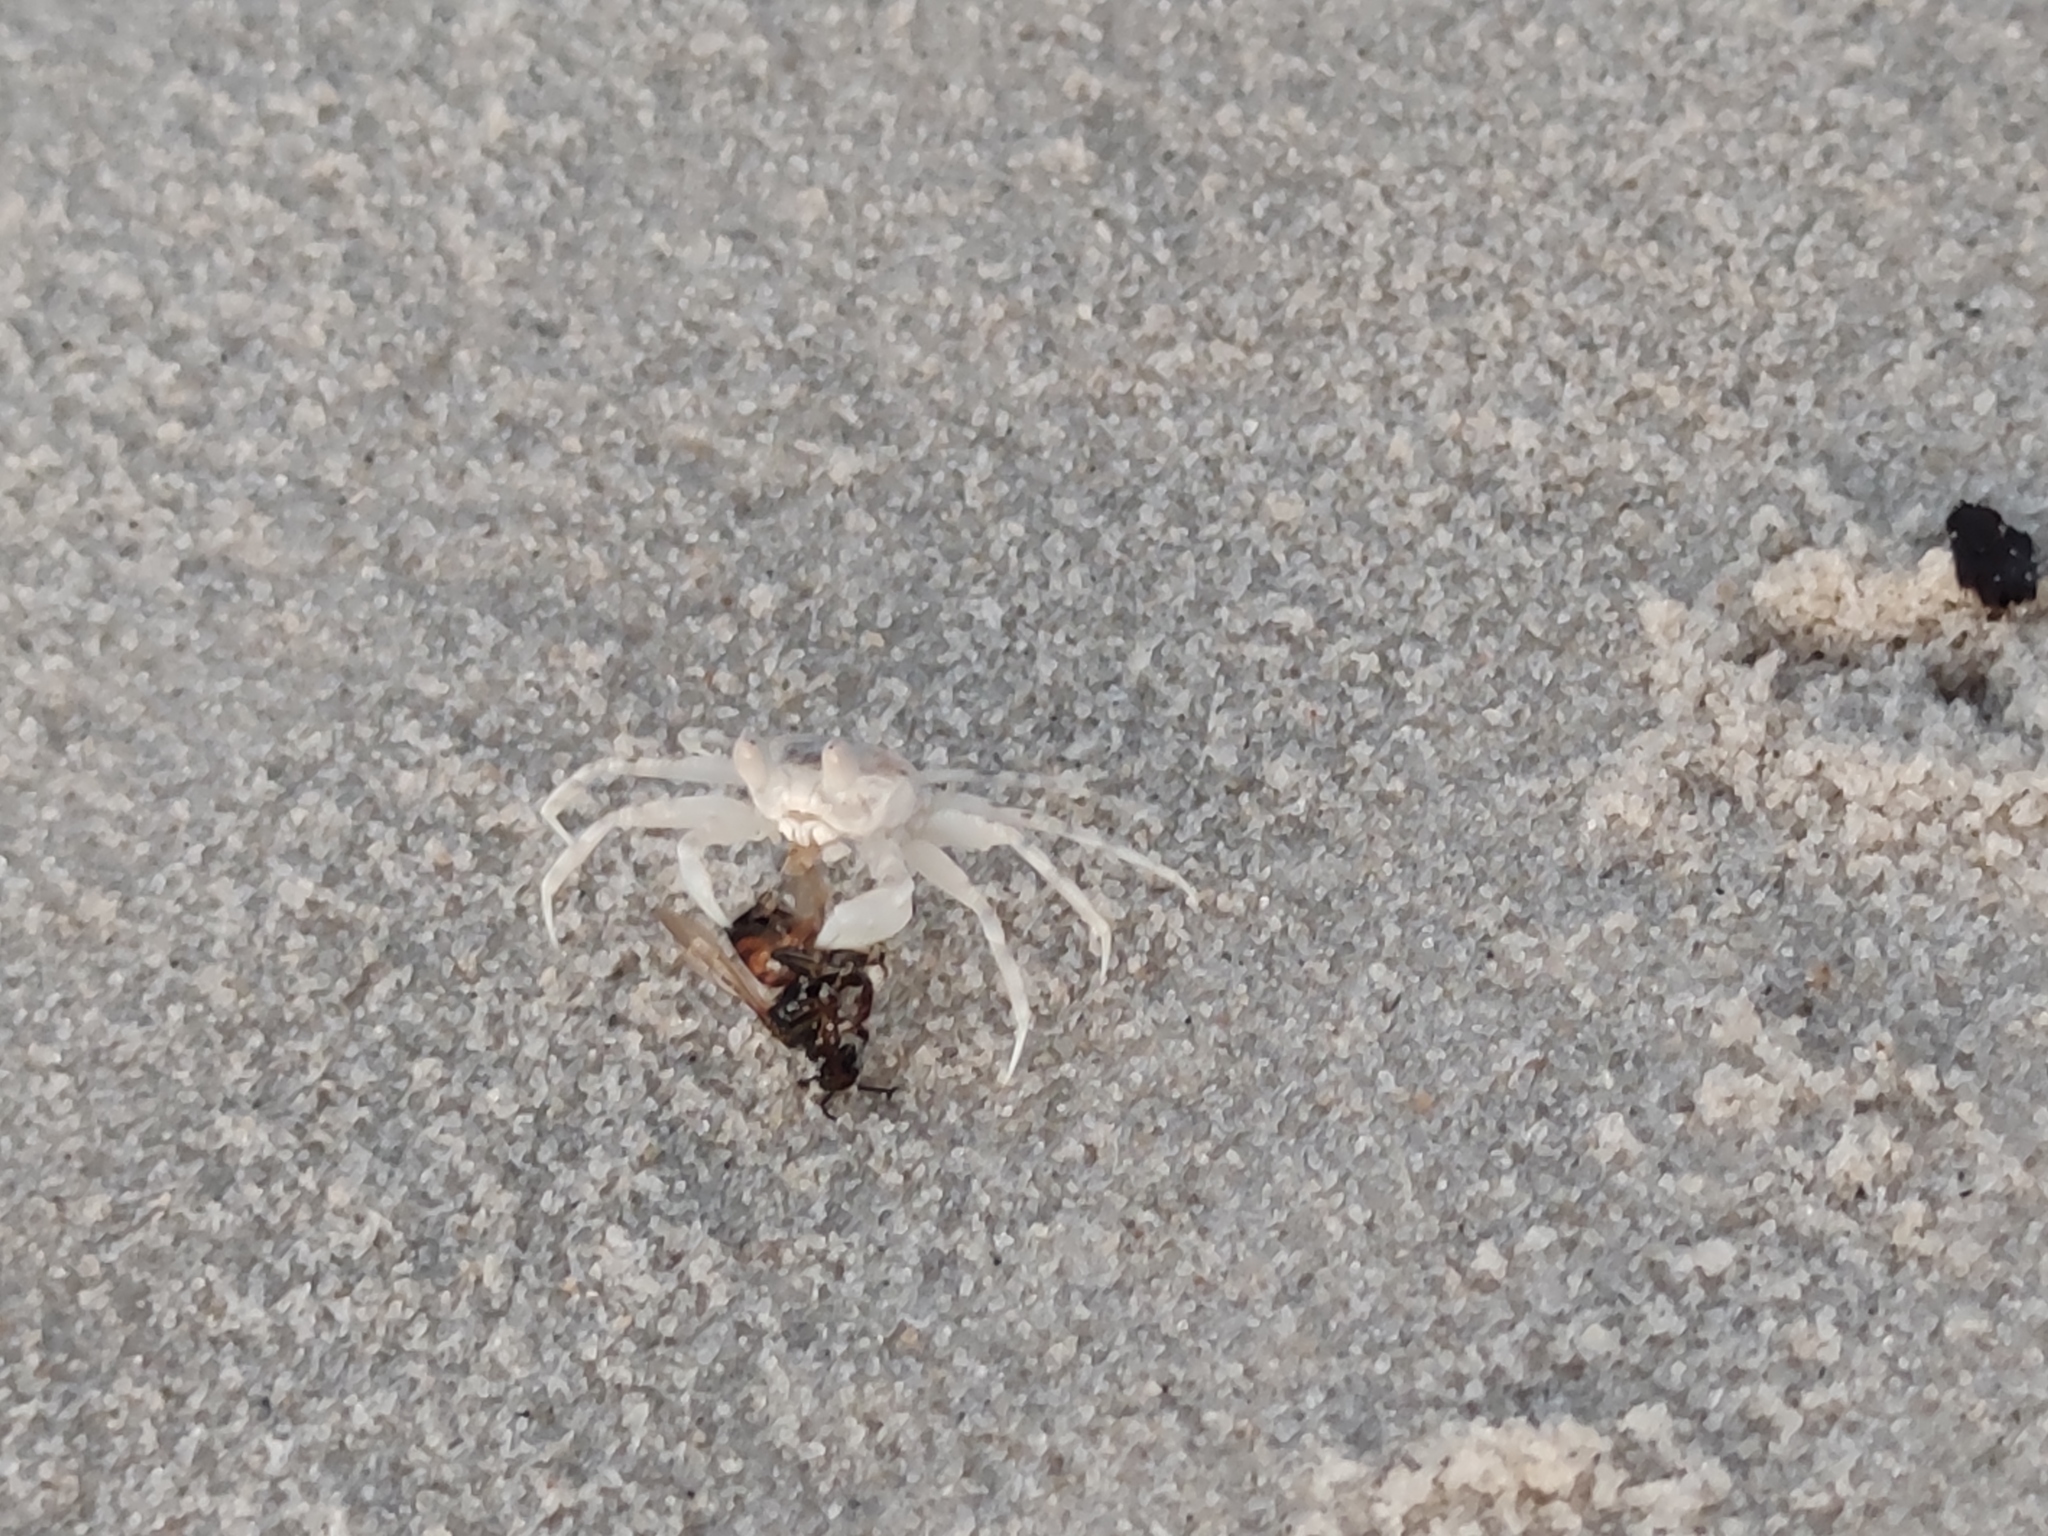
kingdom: Animalia
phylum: Arthropoda
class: Malacostraca
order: Decapoda
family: Ocypodidae
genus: Ocypode
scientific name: Ocypode
